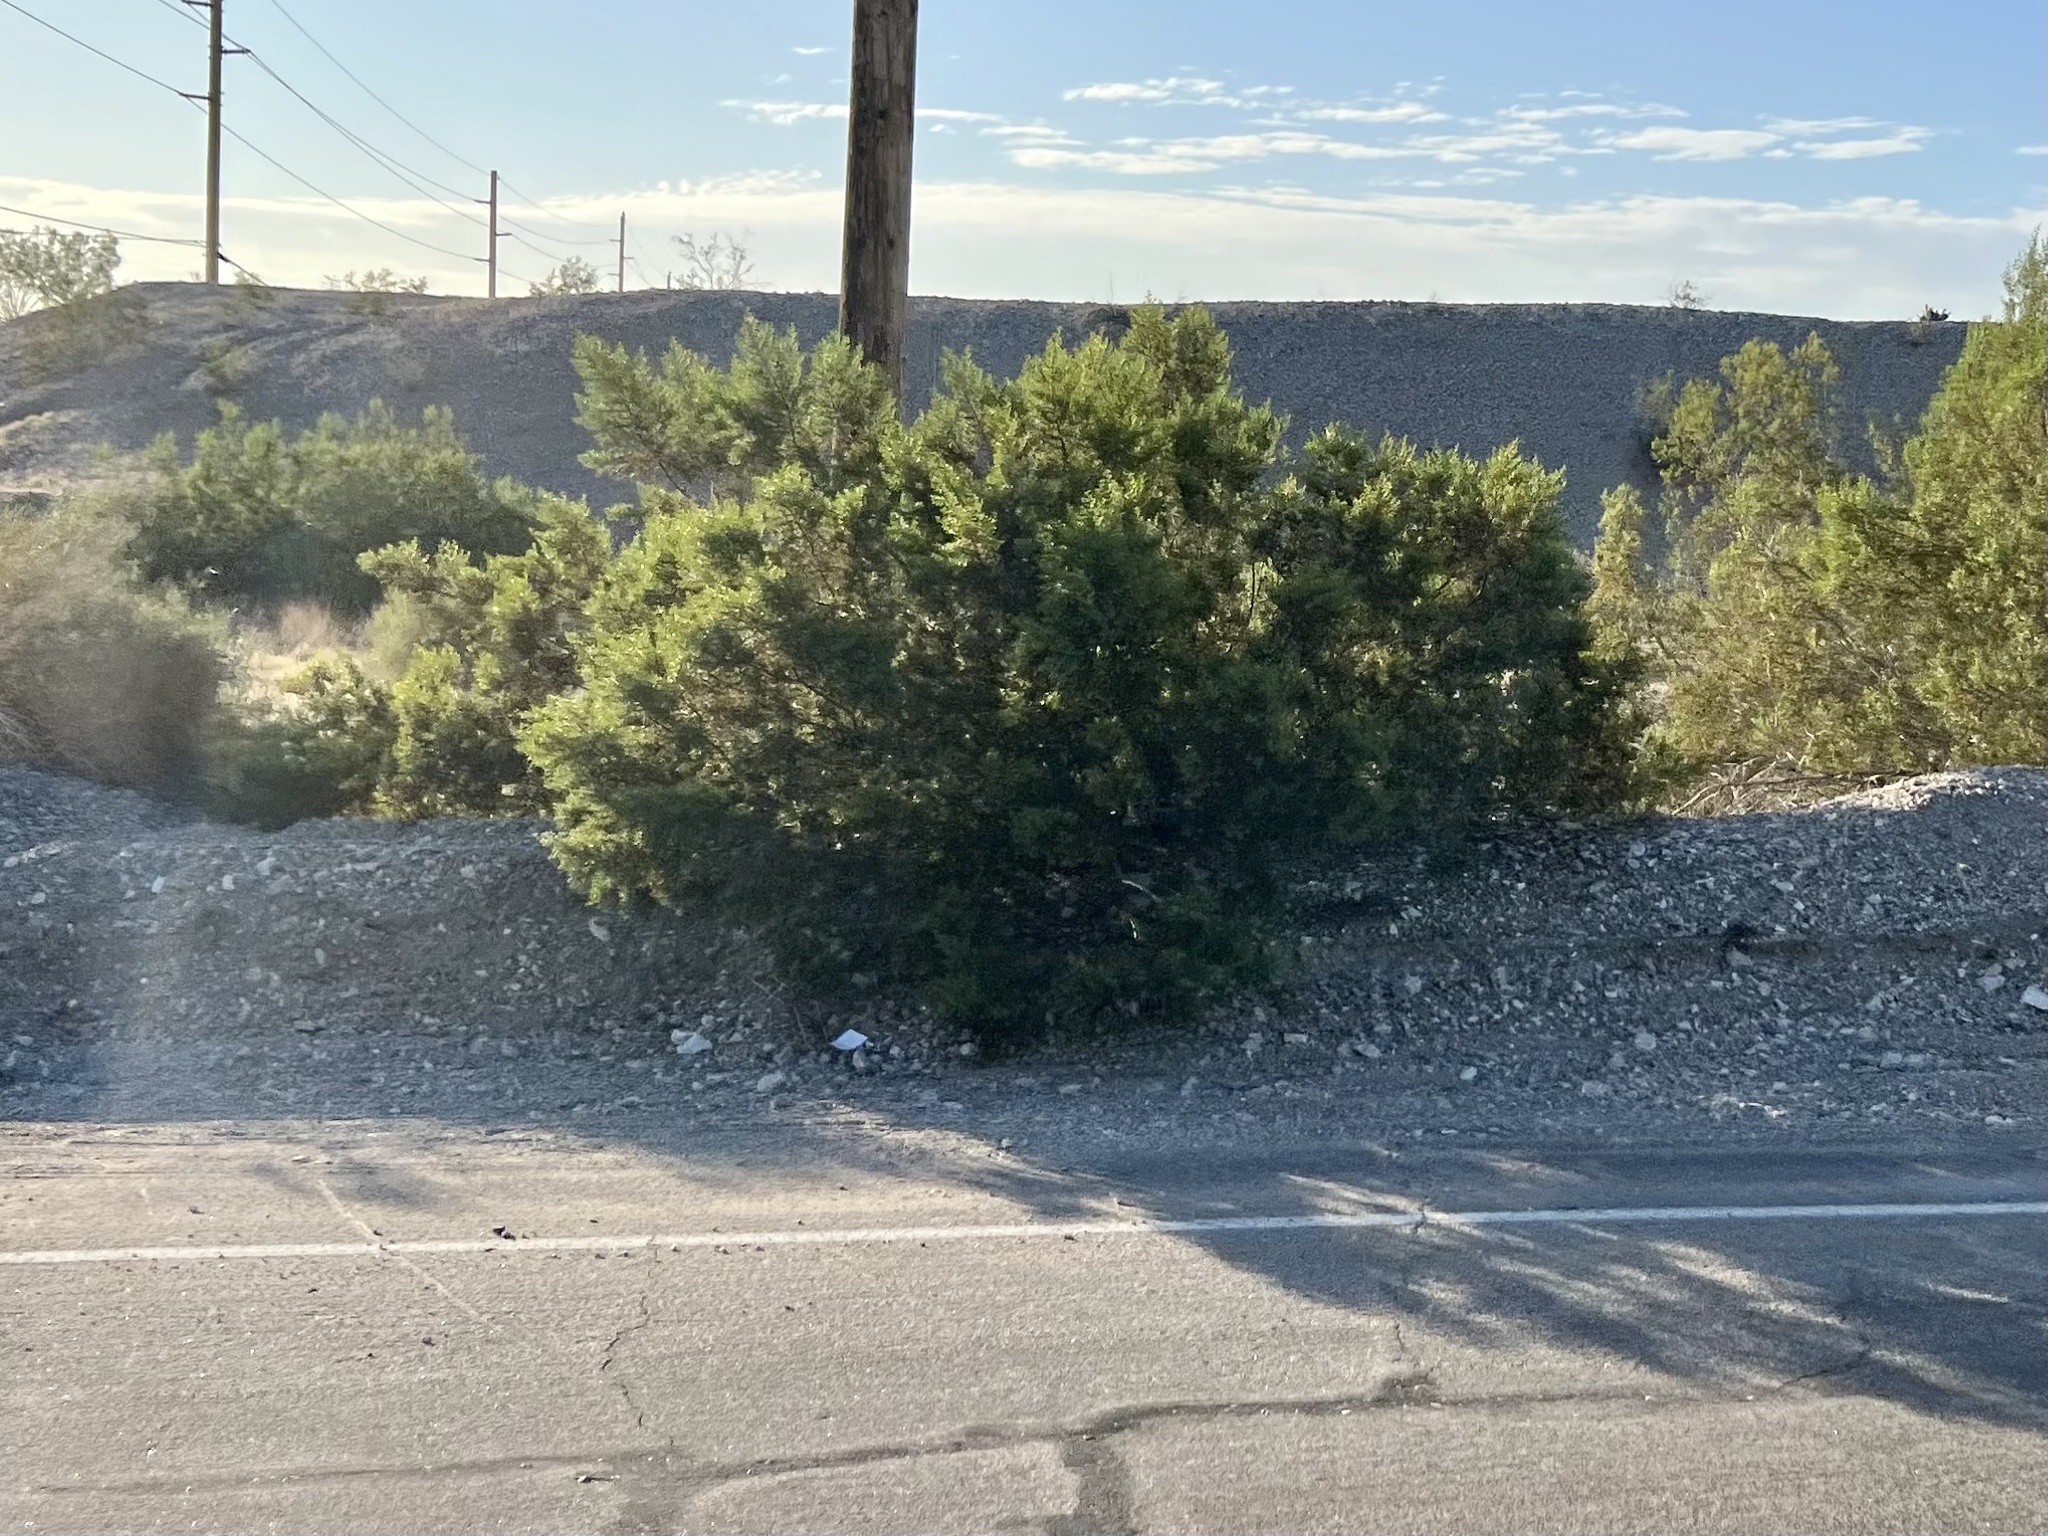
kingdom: Plantae
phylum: Tracheophyta
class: Magnoliopsida
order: Zygophyllales
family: Zygophyllaceae
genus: Larrea
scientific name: Larrea tridentata
